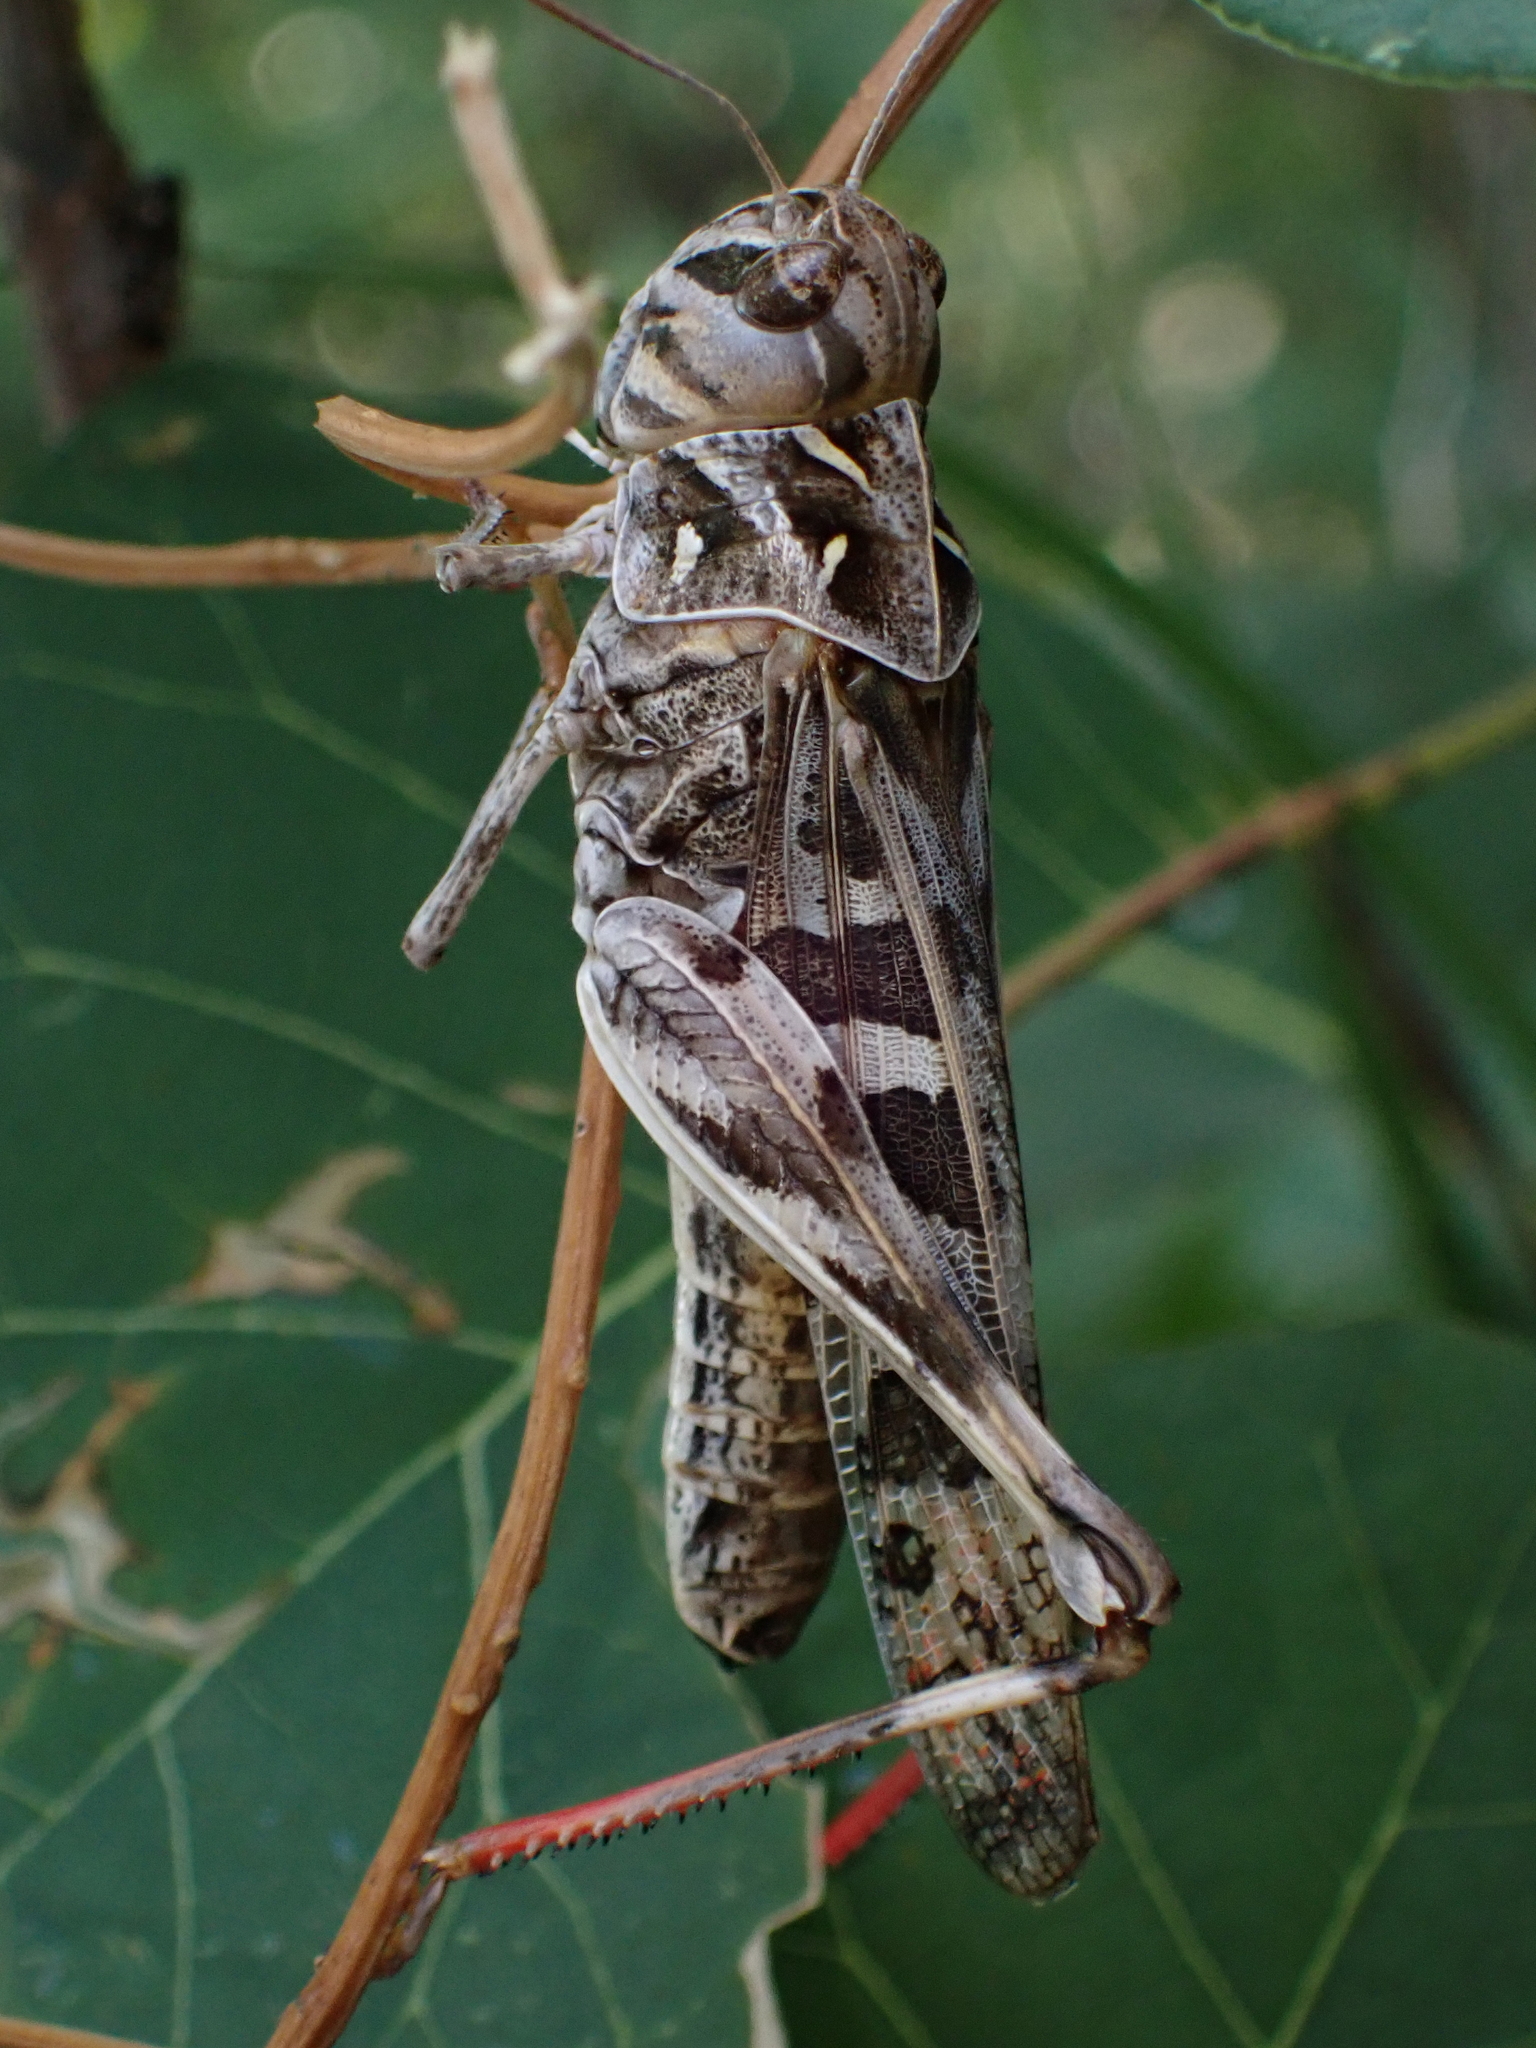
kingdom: Animalia
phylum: Arthropoda
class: Insecta
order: Orthoptera
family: Acrididae
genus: Oedaleus
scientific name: Oedaleus decorus
